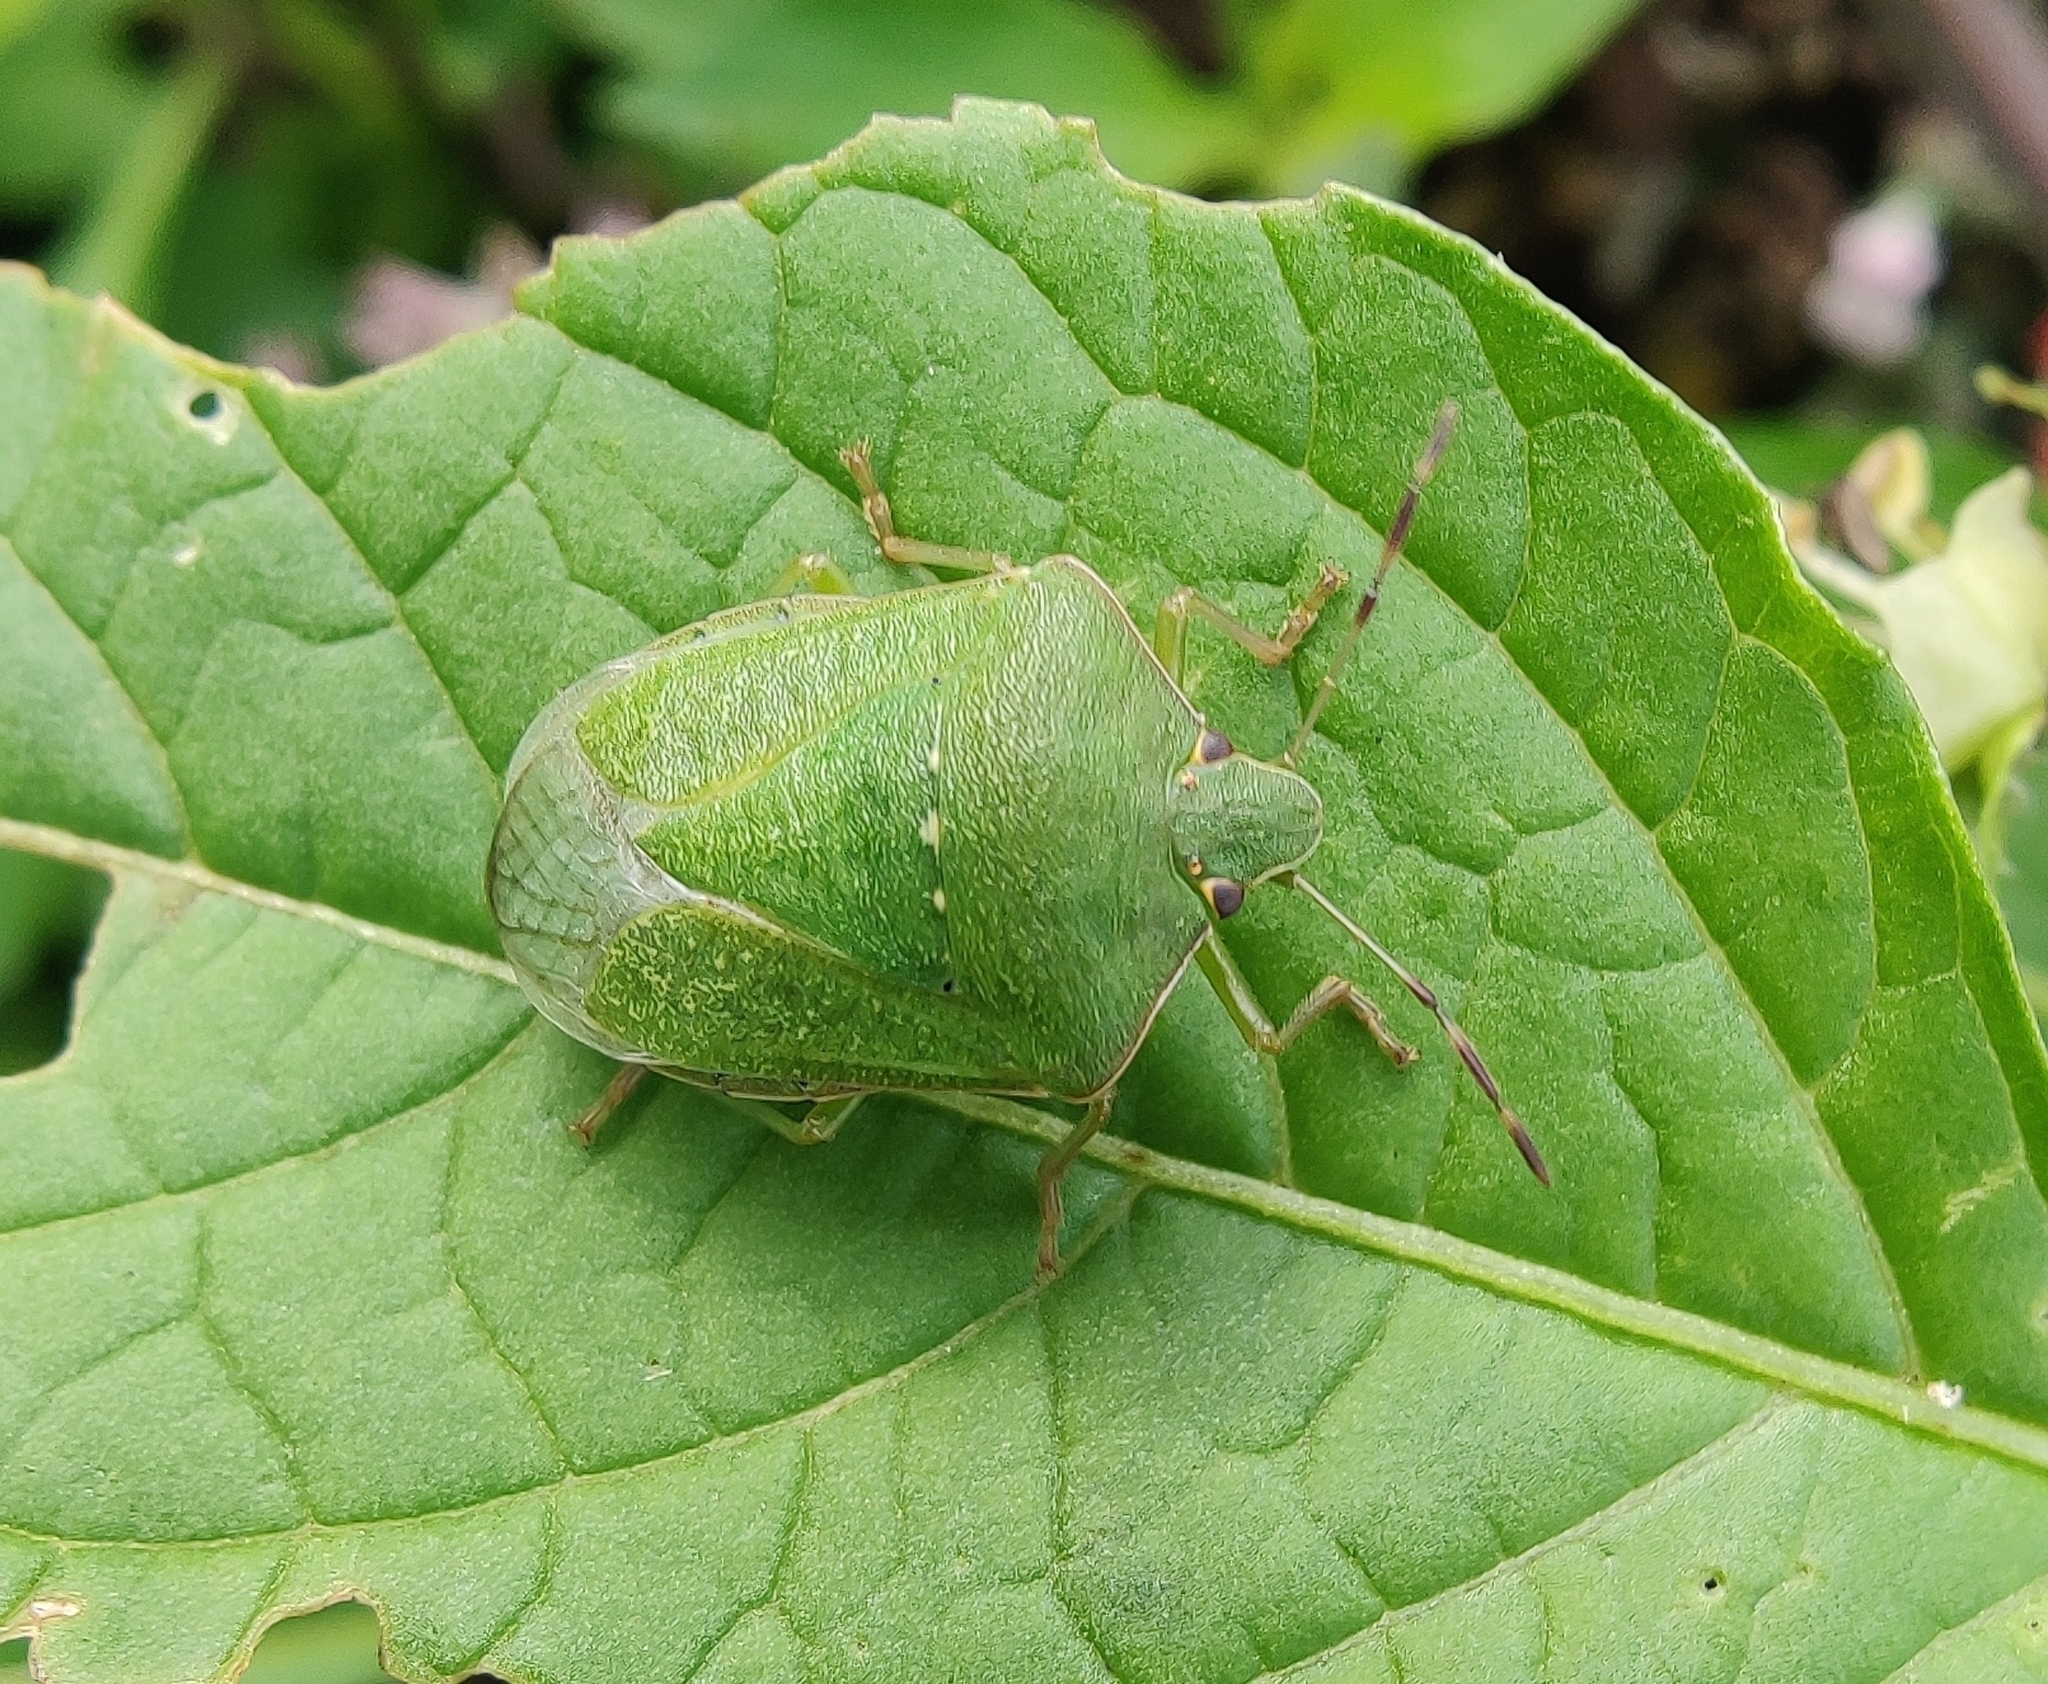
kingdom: Animalia
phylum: Arthropoda
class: Insecta
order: Hemiptera
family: Pentatomidae
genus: Nezara
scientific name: Nezara viridula
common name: Southern green stink bug
